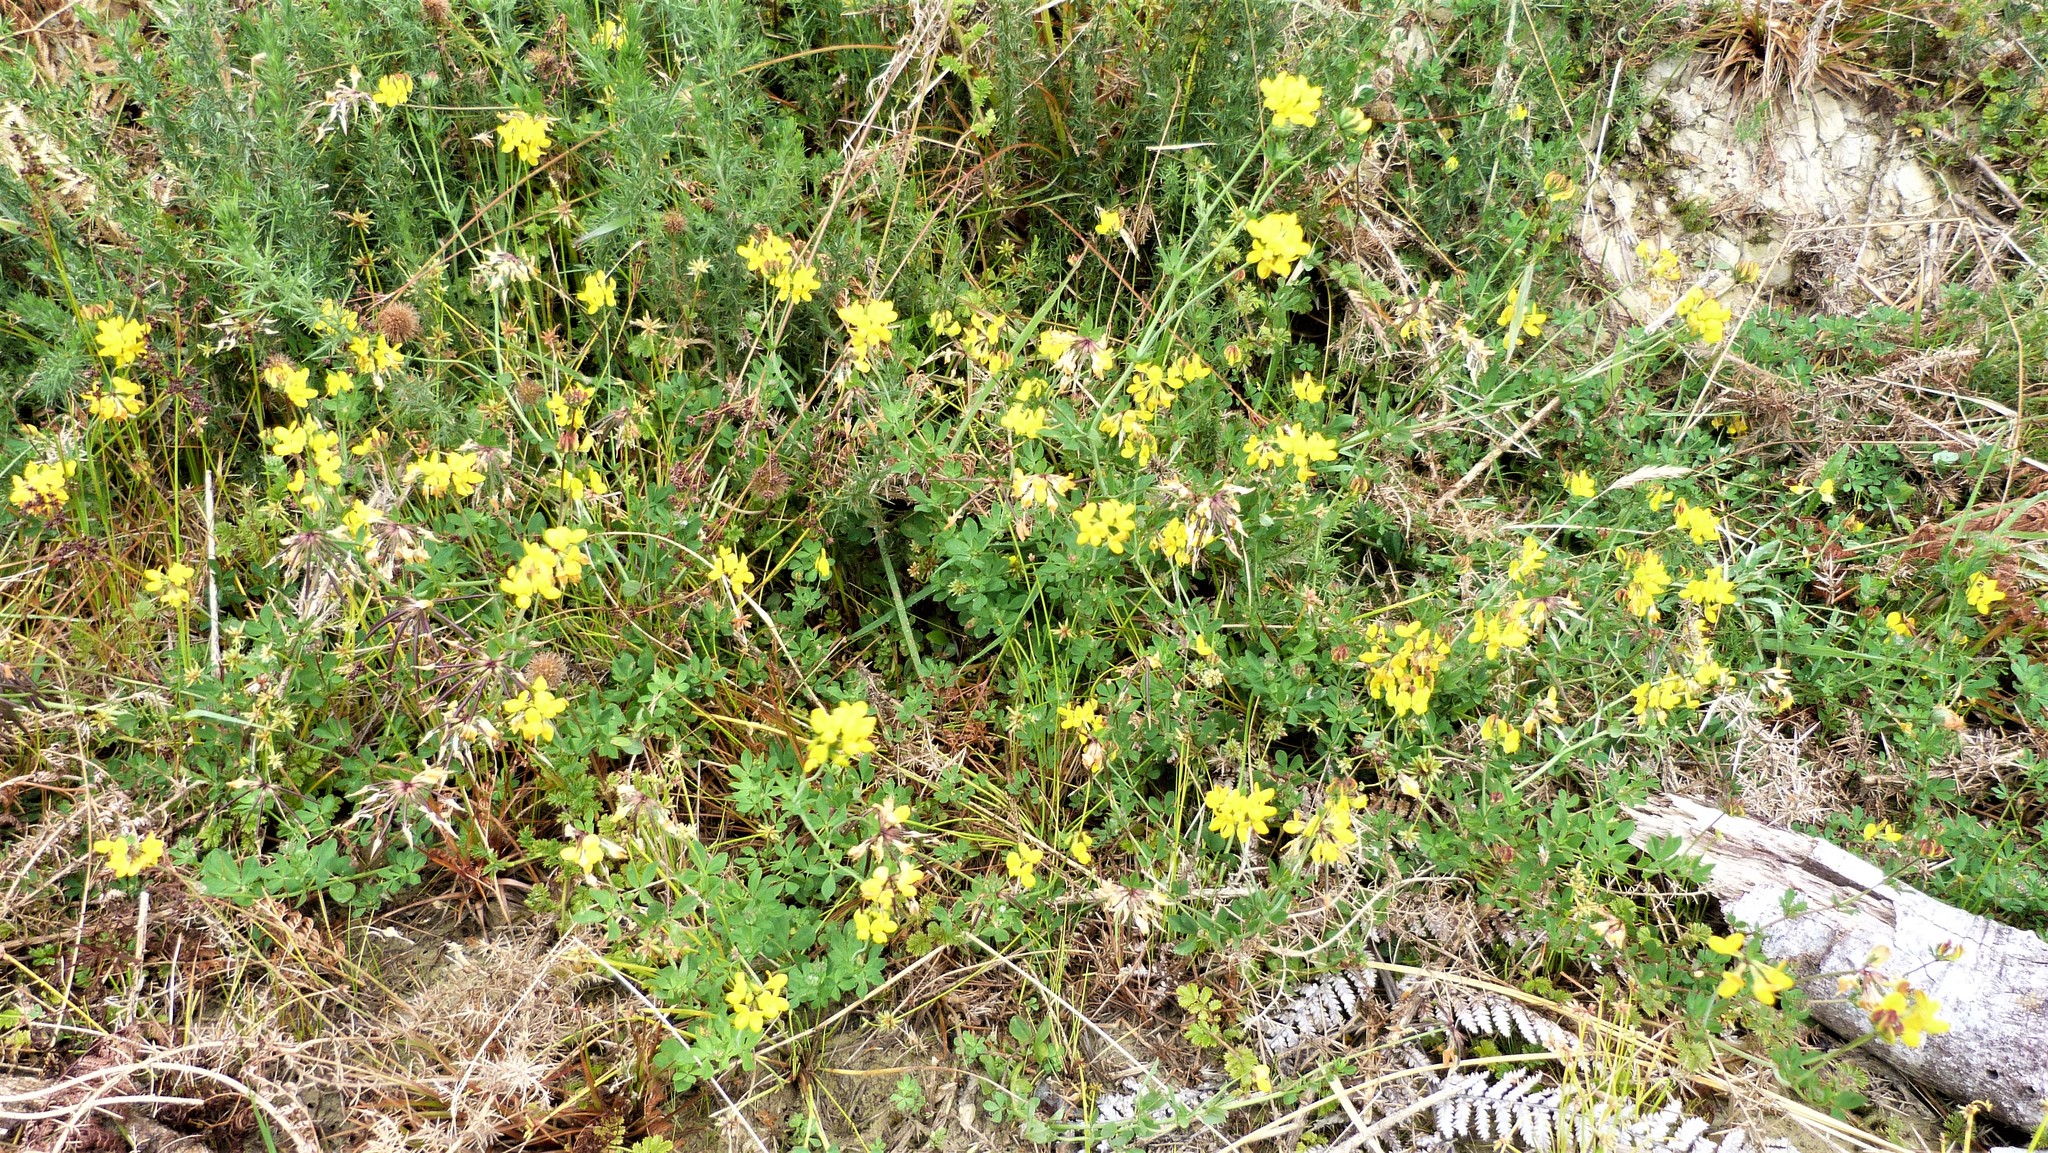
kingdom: Plantae
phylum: Tracheophyta
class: Magnoliopsida
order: Fabales
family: Fabaceae
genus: Lotus
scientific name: Lotus pedunculatus
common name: Greater birdsfoot-trefoil
